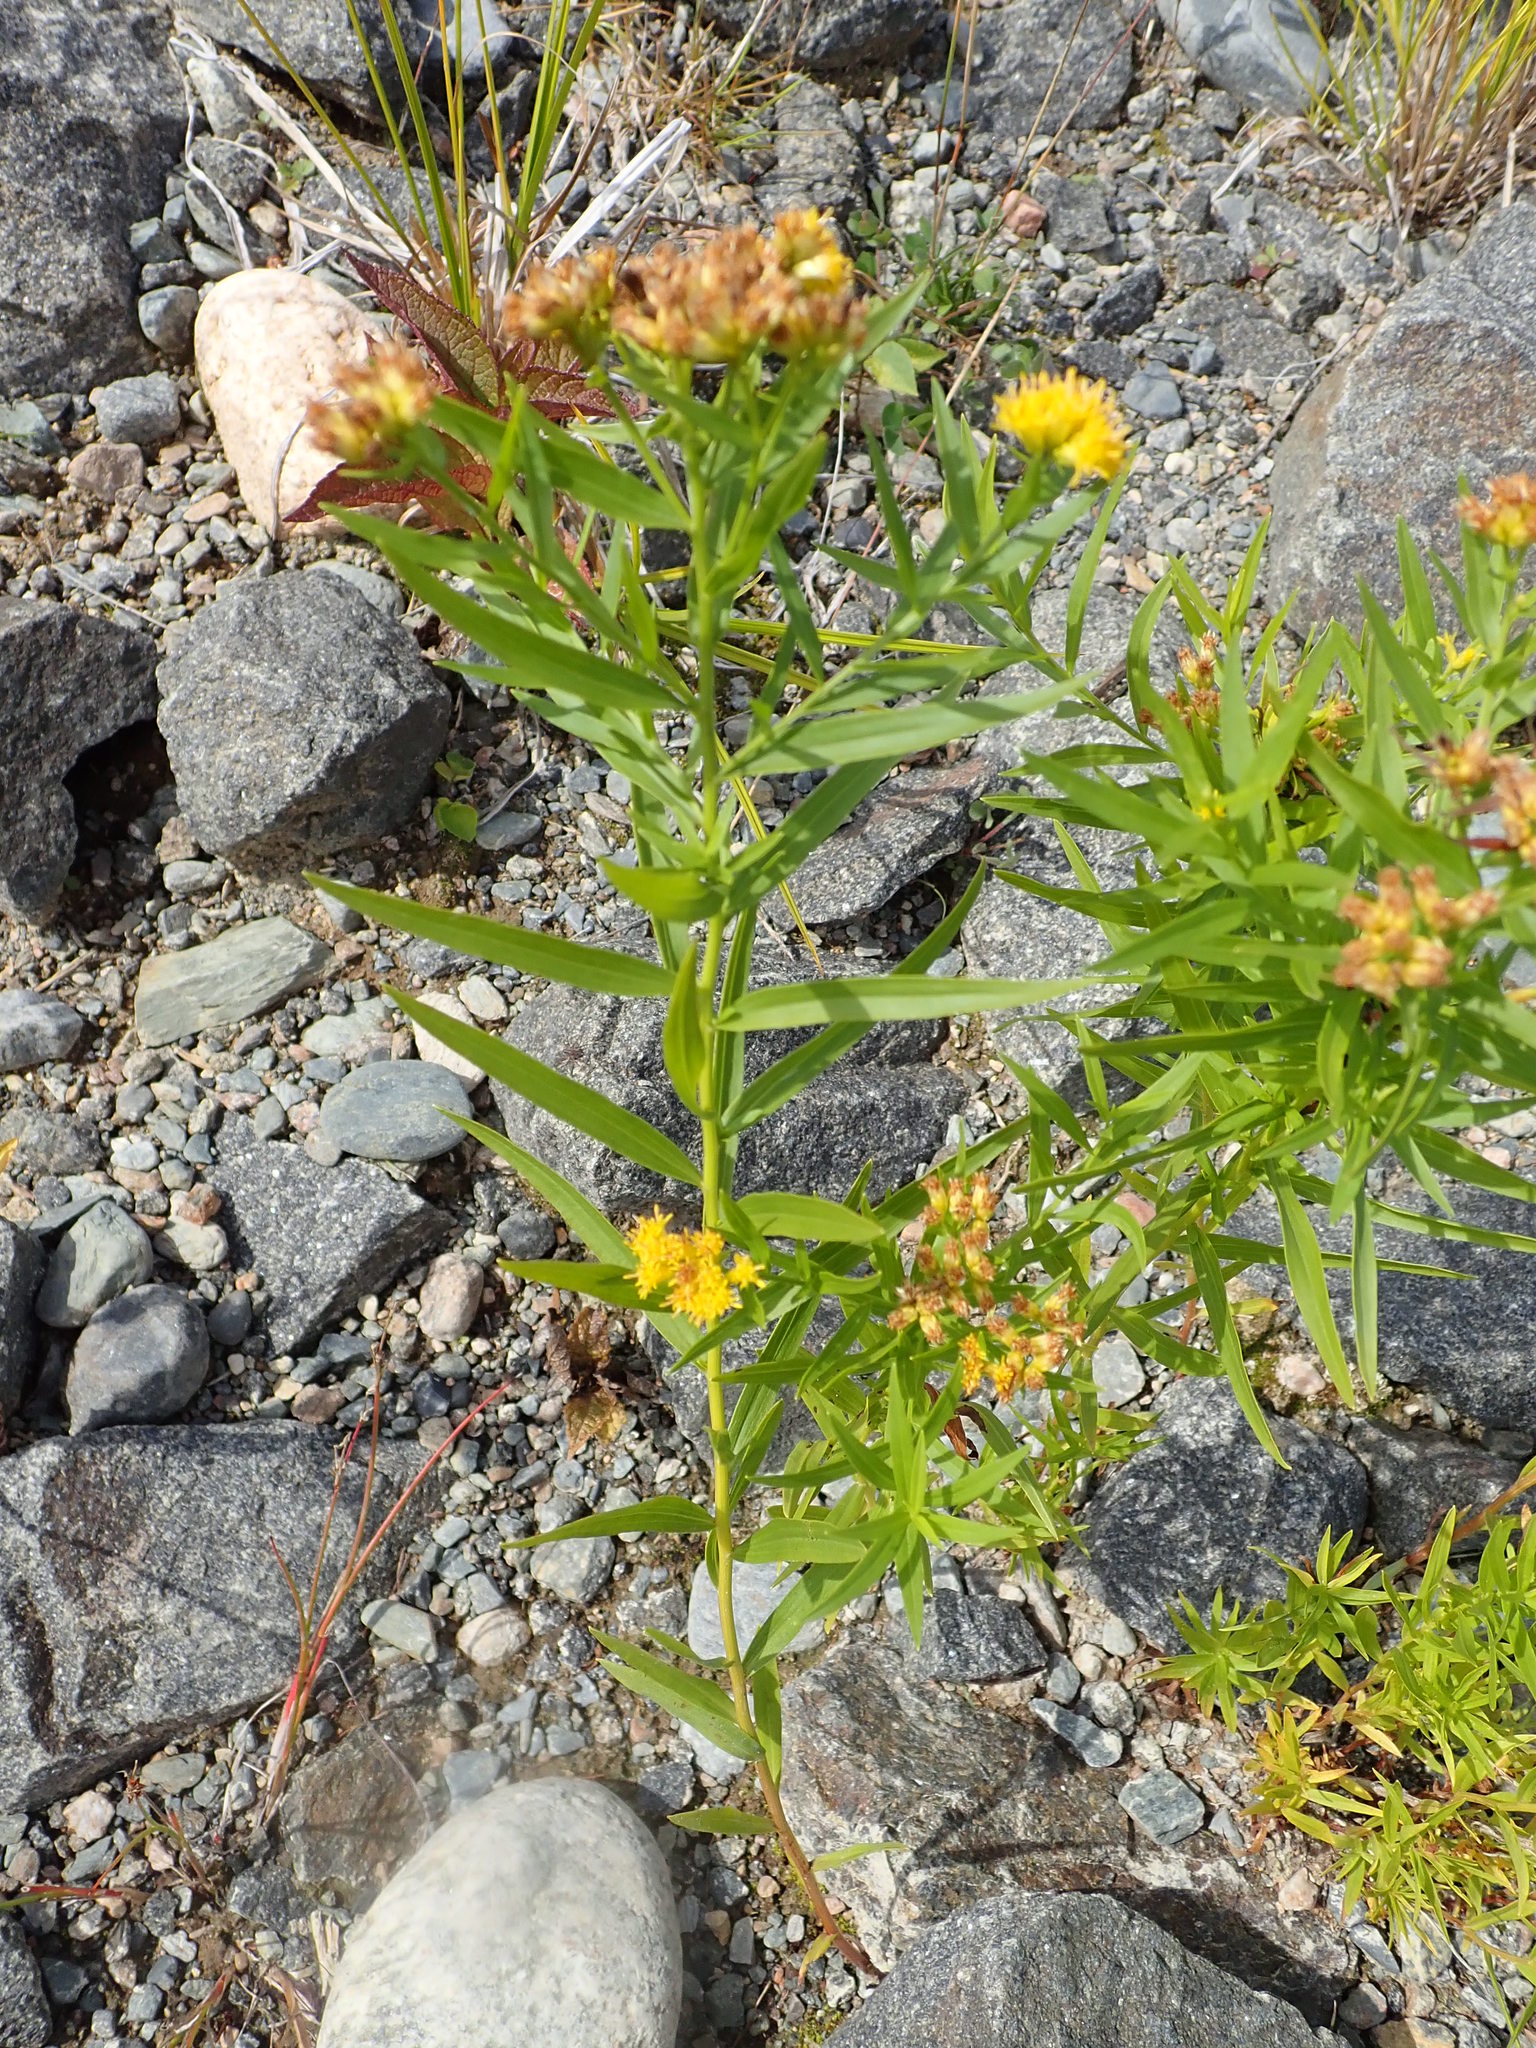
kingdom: Plantae
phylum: Tracheophyta
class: Magnoliopsida
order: Asterales
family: Asteraceae
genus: Euthamia
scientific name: Euthamia graminifolia
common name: Common goldentop
